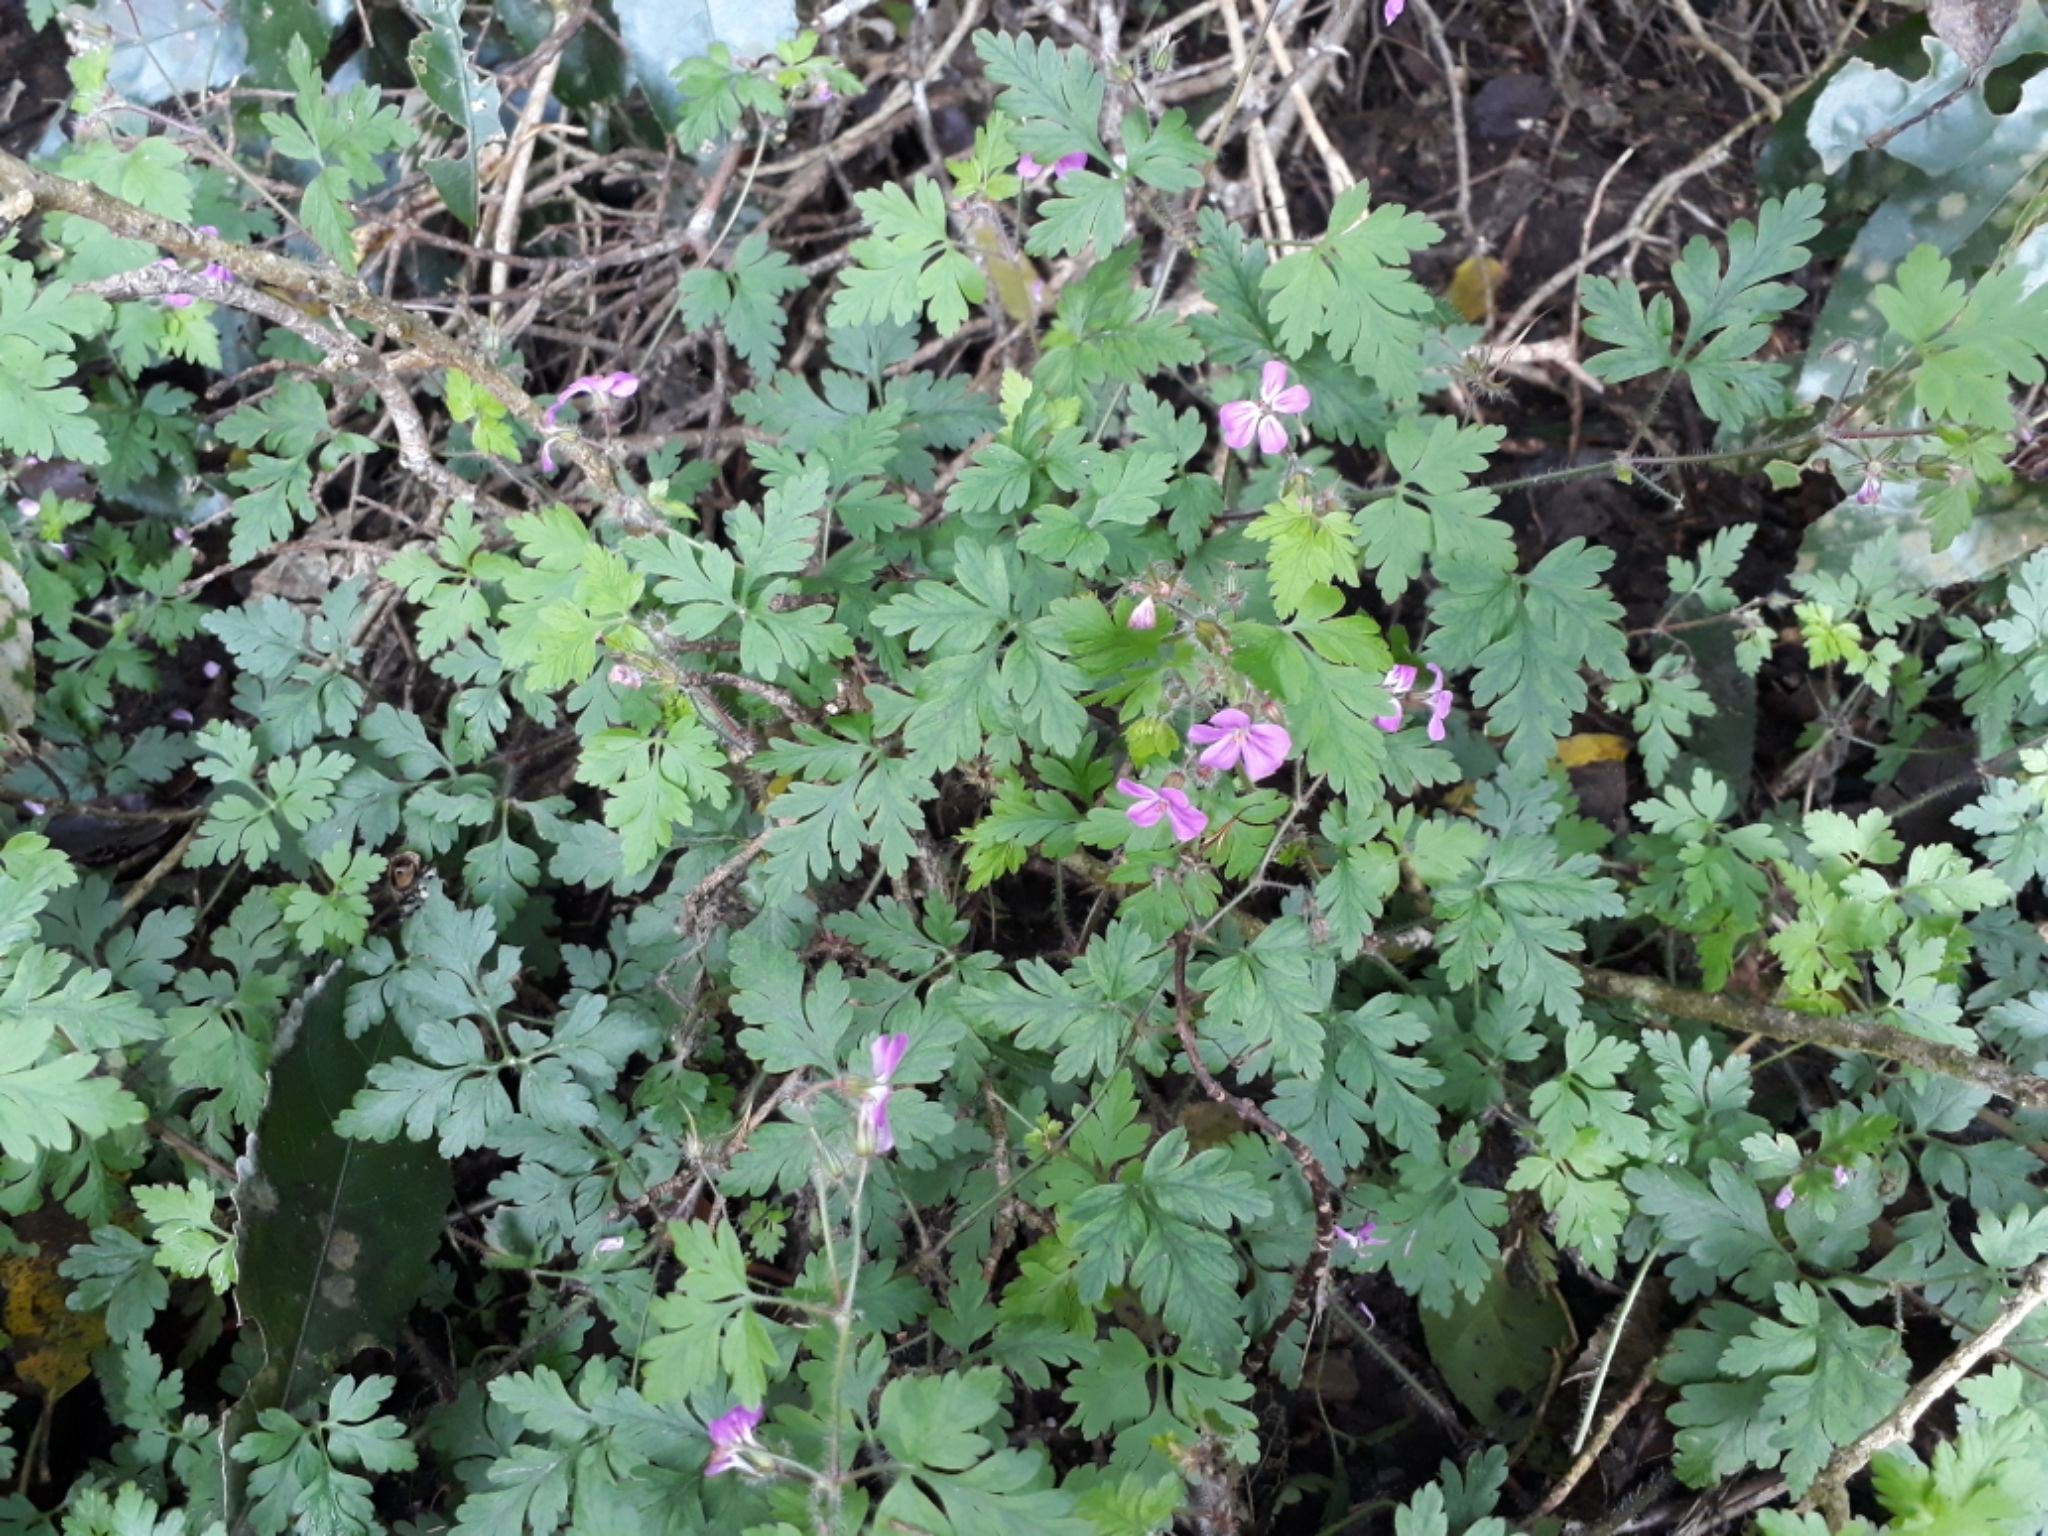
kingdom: Plantae
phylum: Tracheophyta
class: Magnoliopsida
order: Geraniales
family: Geraniaceae
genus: Geranium
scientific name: Geranium robertianum
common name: Herb-robert
